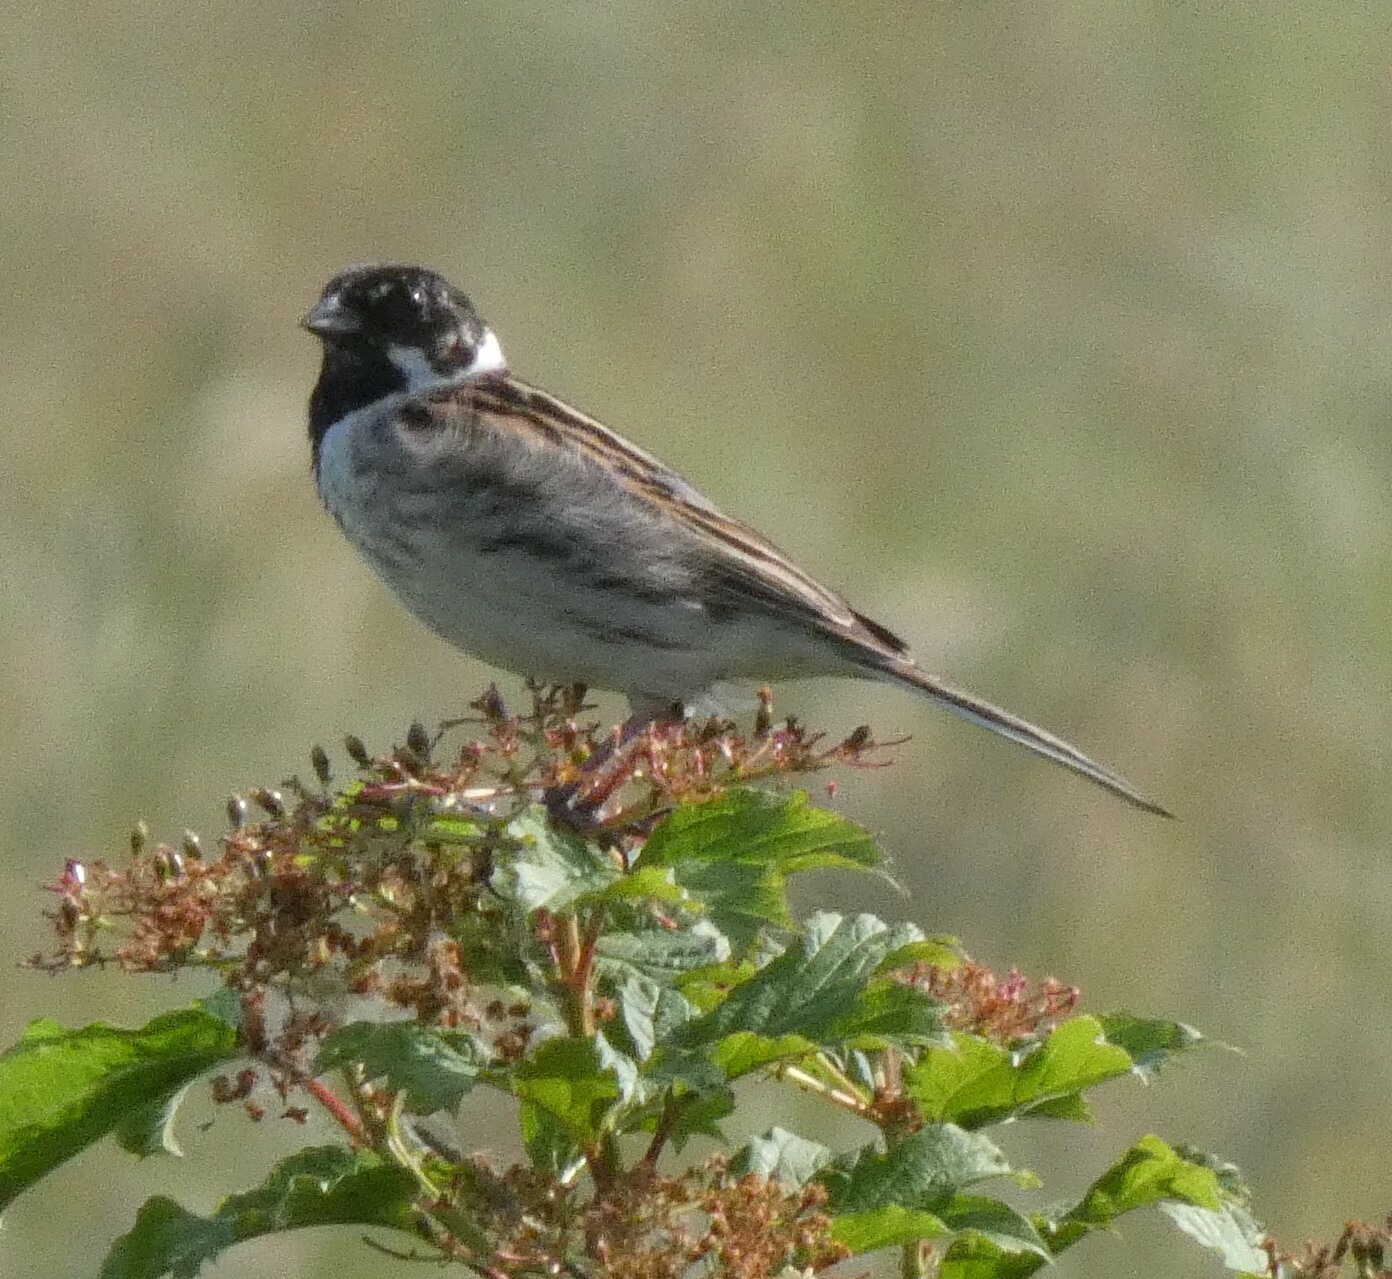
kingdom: Animalia
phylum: Chordata
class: Aves
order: Passeriformes
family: Emberizidae
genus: Emberiza
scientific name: Emberiza schoeniclus
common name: Reed bunting
